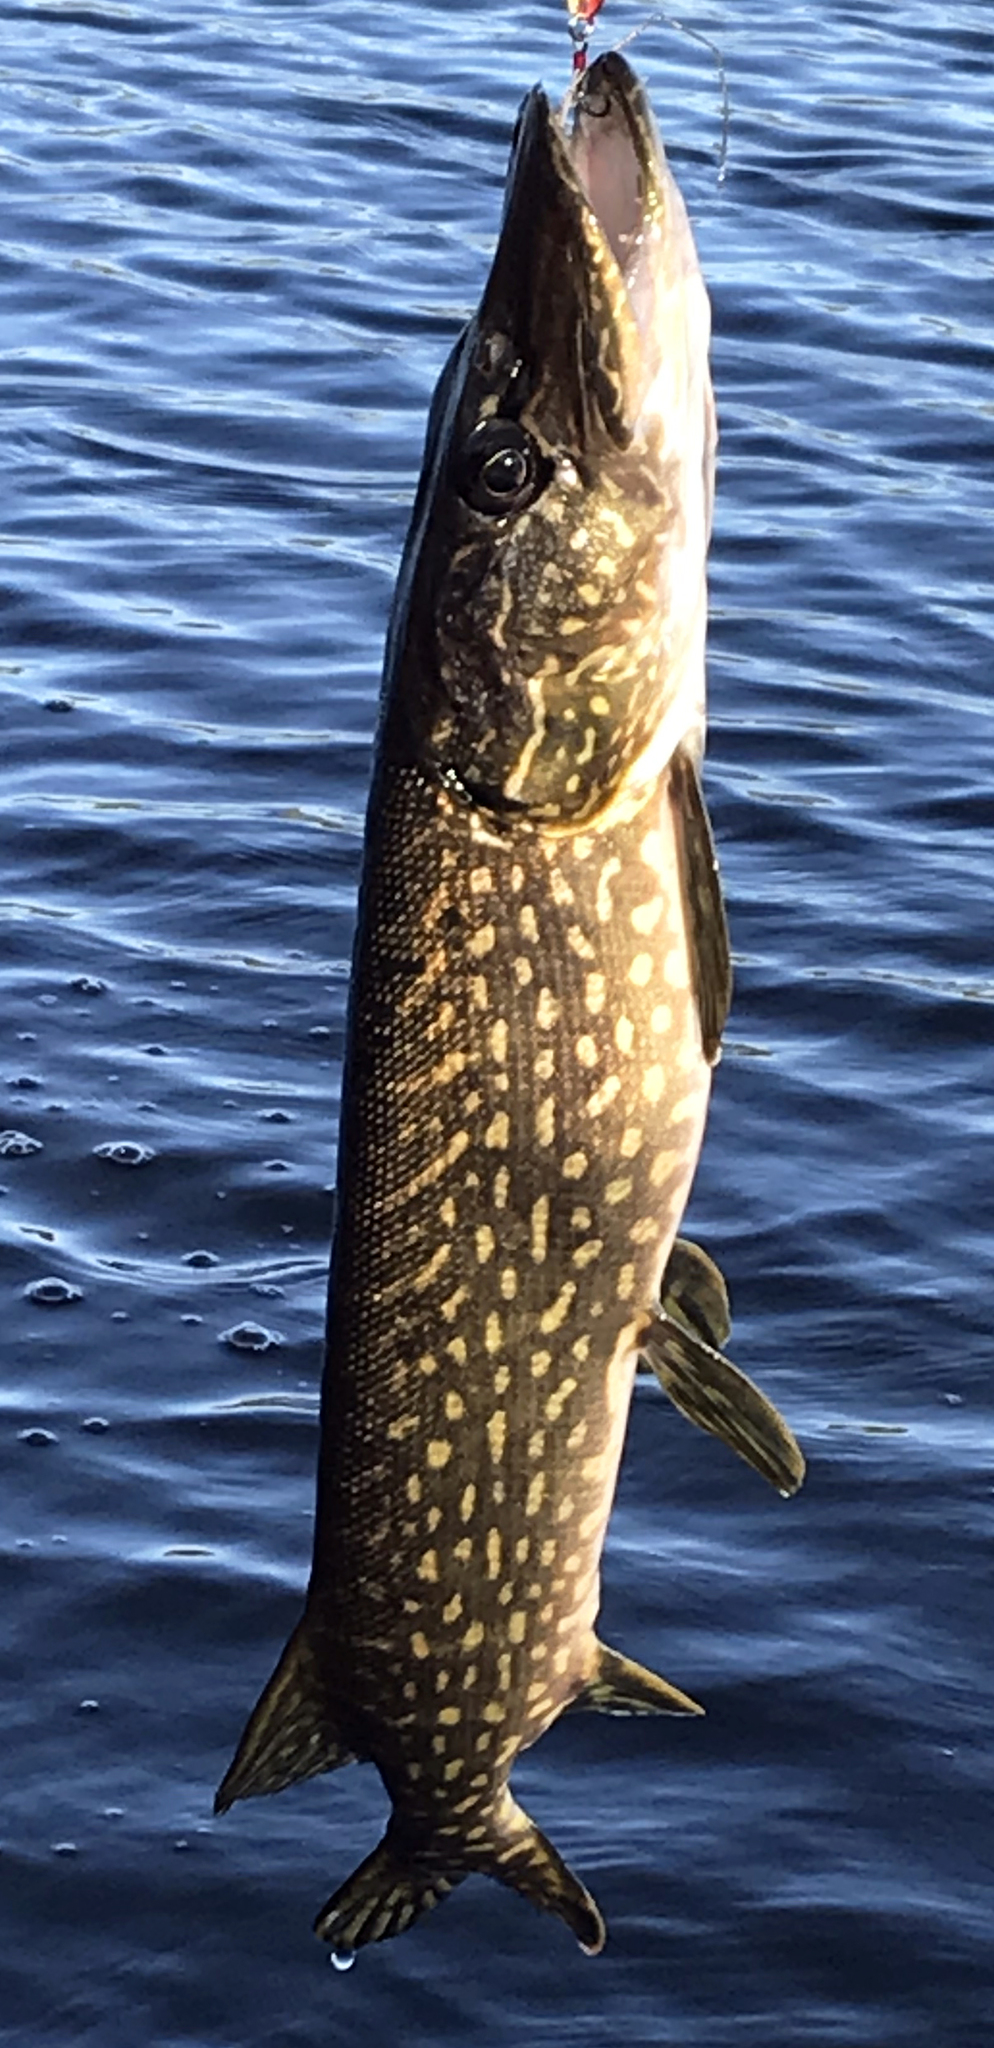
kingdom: Animalia
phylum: Chordata
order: Esociformes
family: Esocidae
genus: Esox
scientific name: Esox lucius
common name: Northern pike
